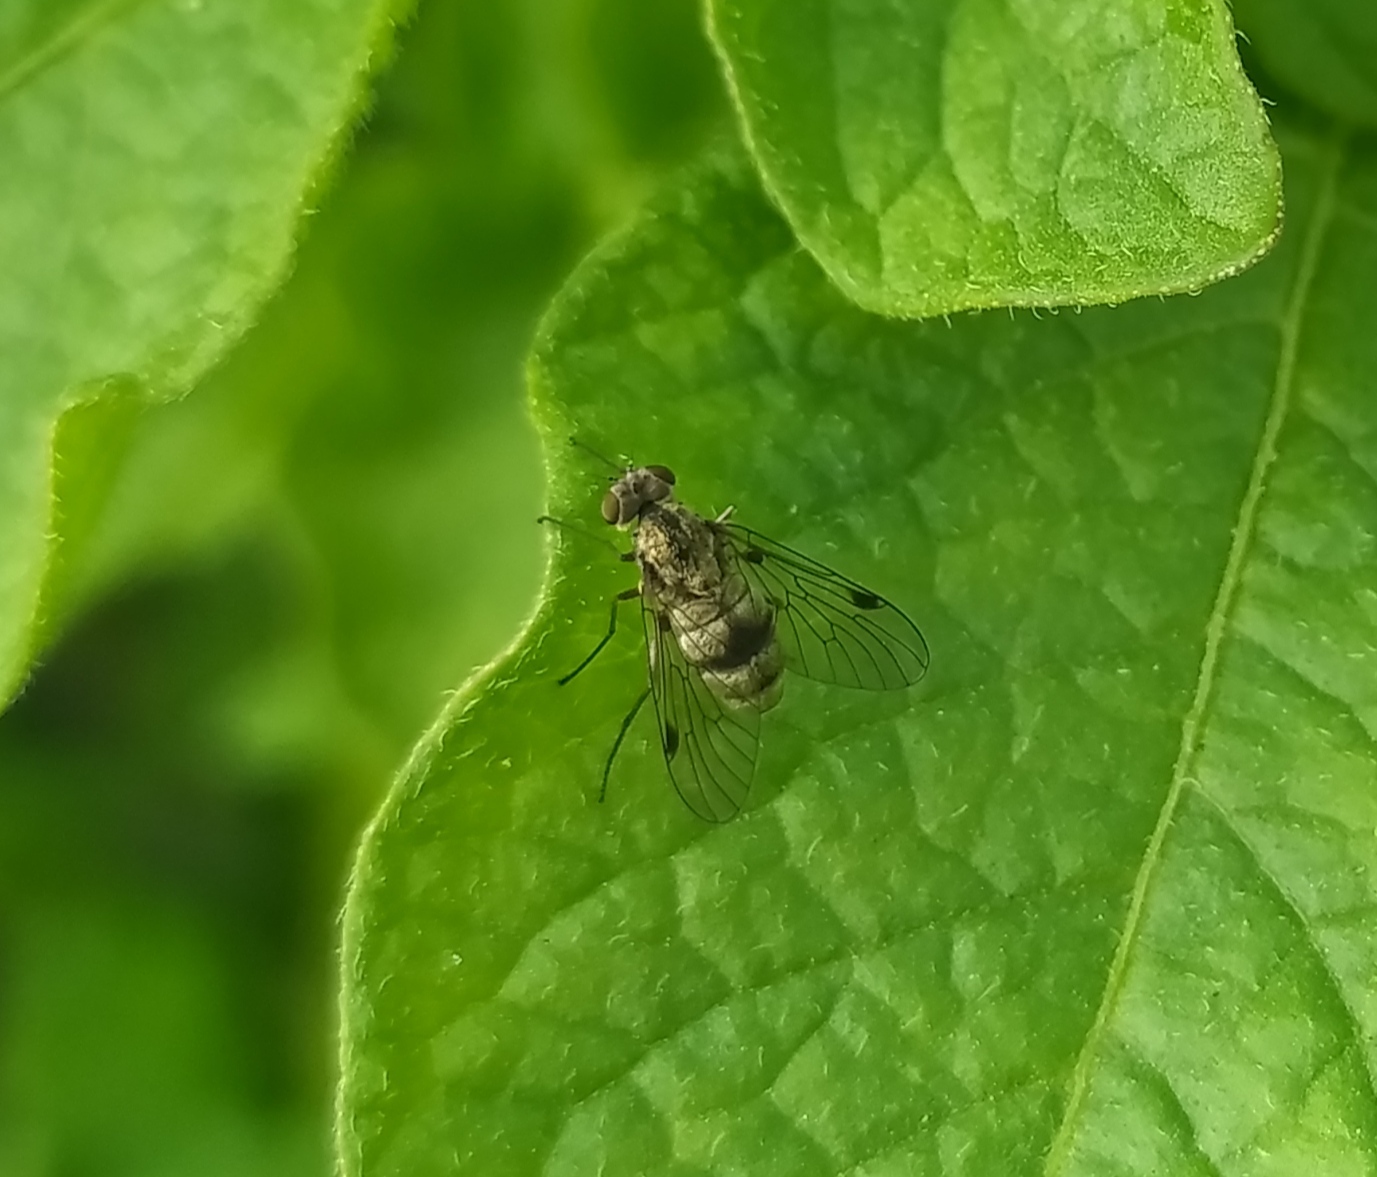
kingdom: Animalia
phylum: Arthropoda
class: Insecta
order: Diptera
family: Rhagionidae
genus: Chrysopilus
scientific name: Chrysopilus splendidus
